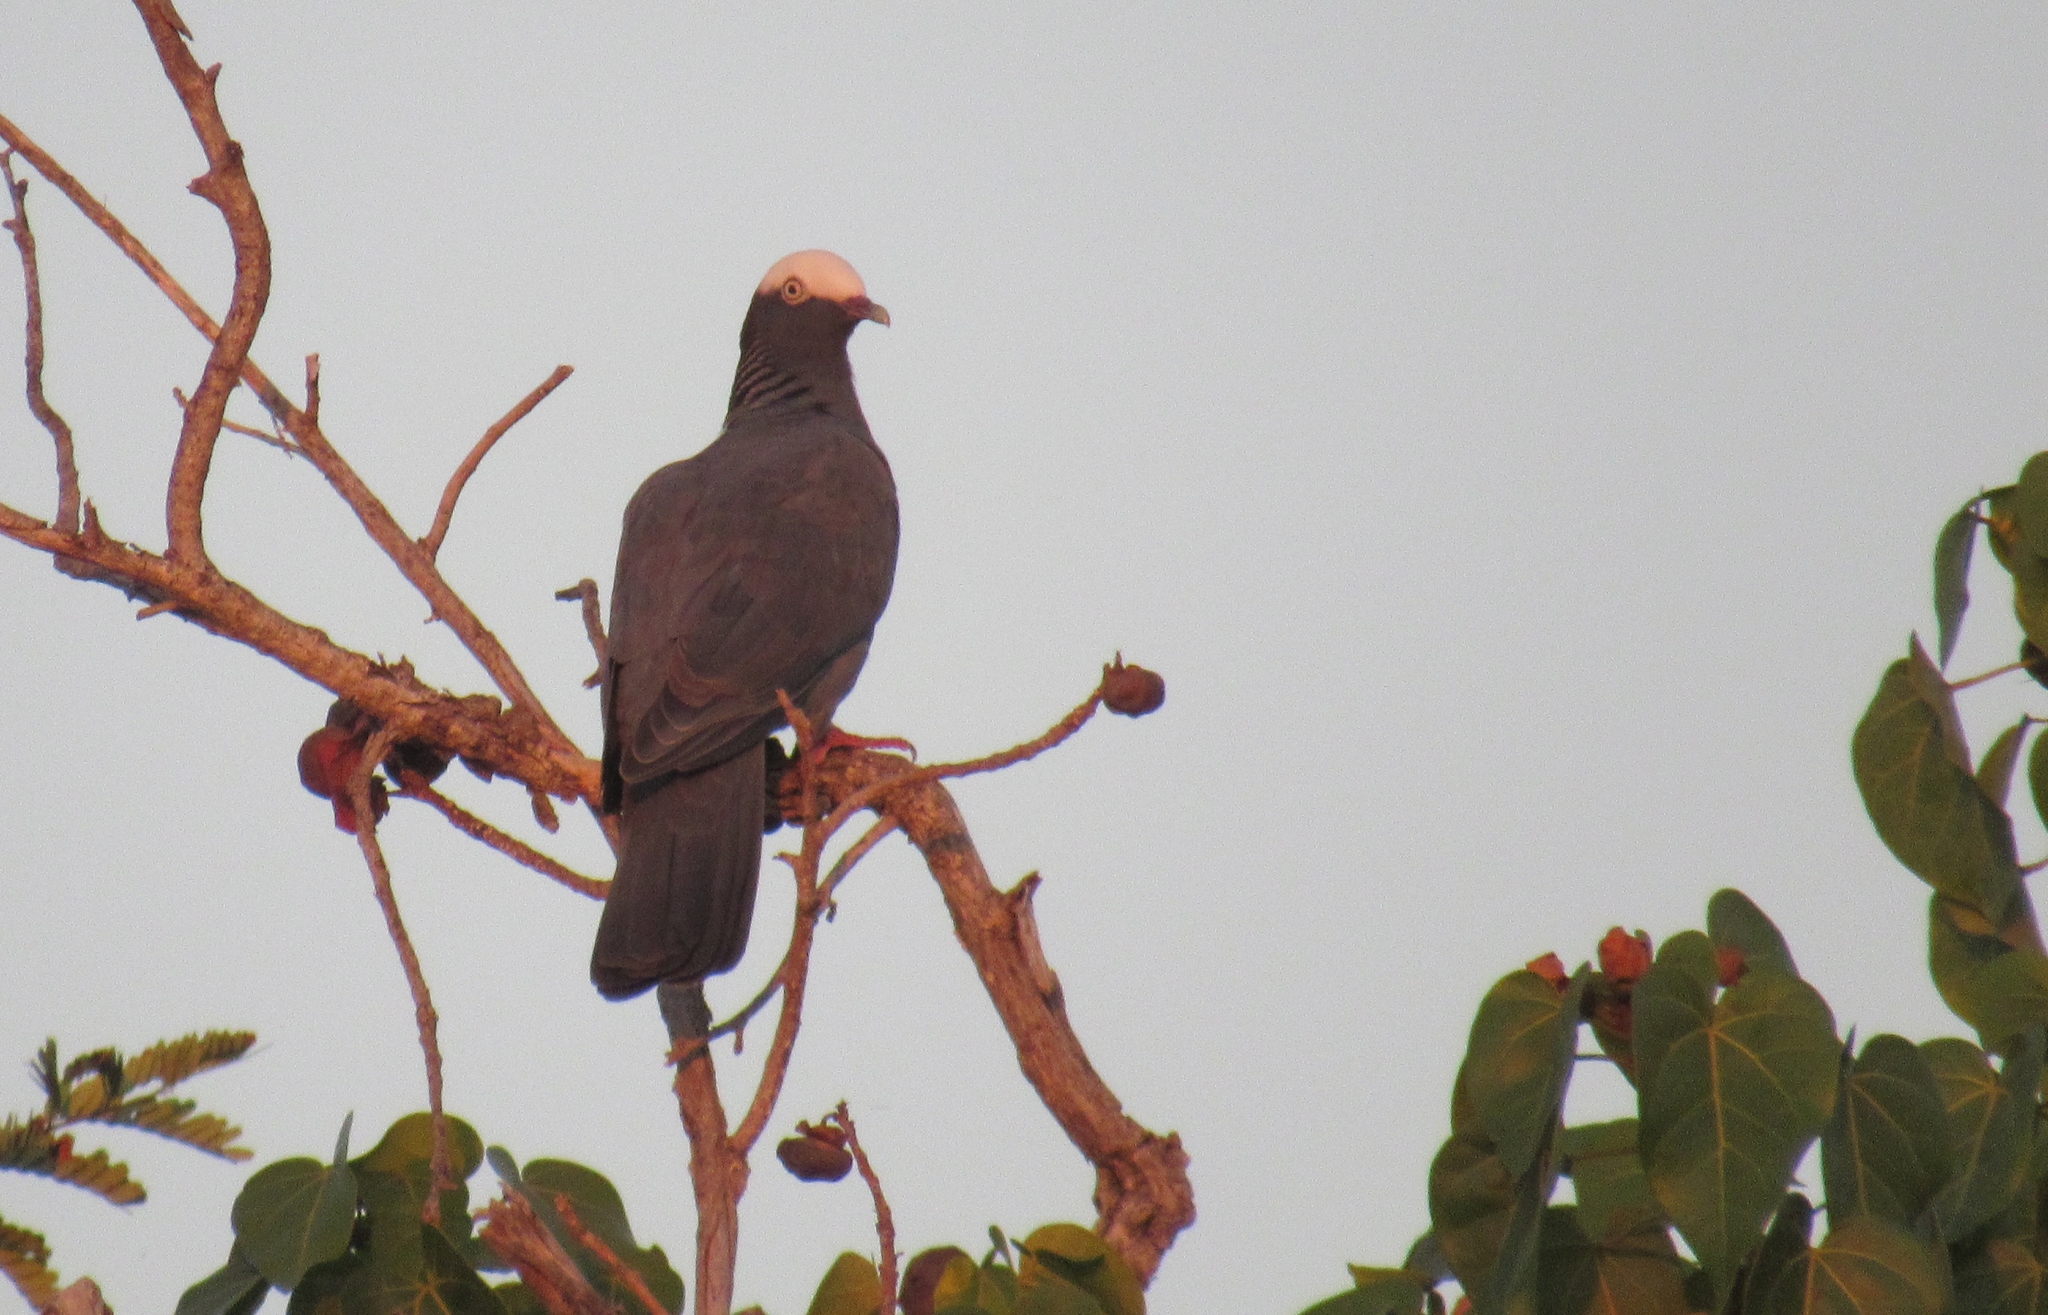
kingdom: Animalia
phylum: Chordata
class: Aves
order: Columbiformes
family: Columbidae
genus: Patagioenas
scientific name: Patagioenas leucocephala
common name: White-crowned pigeon
